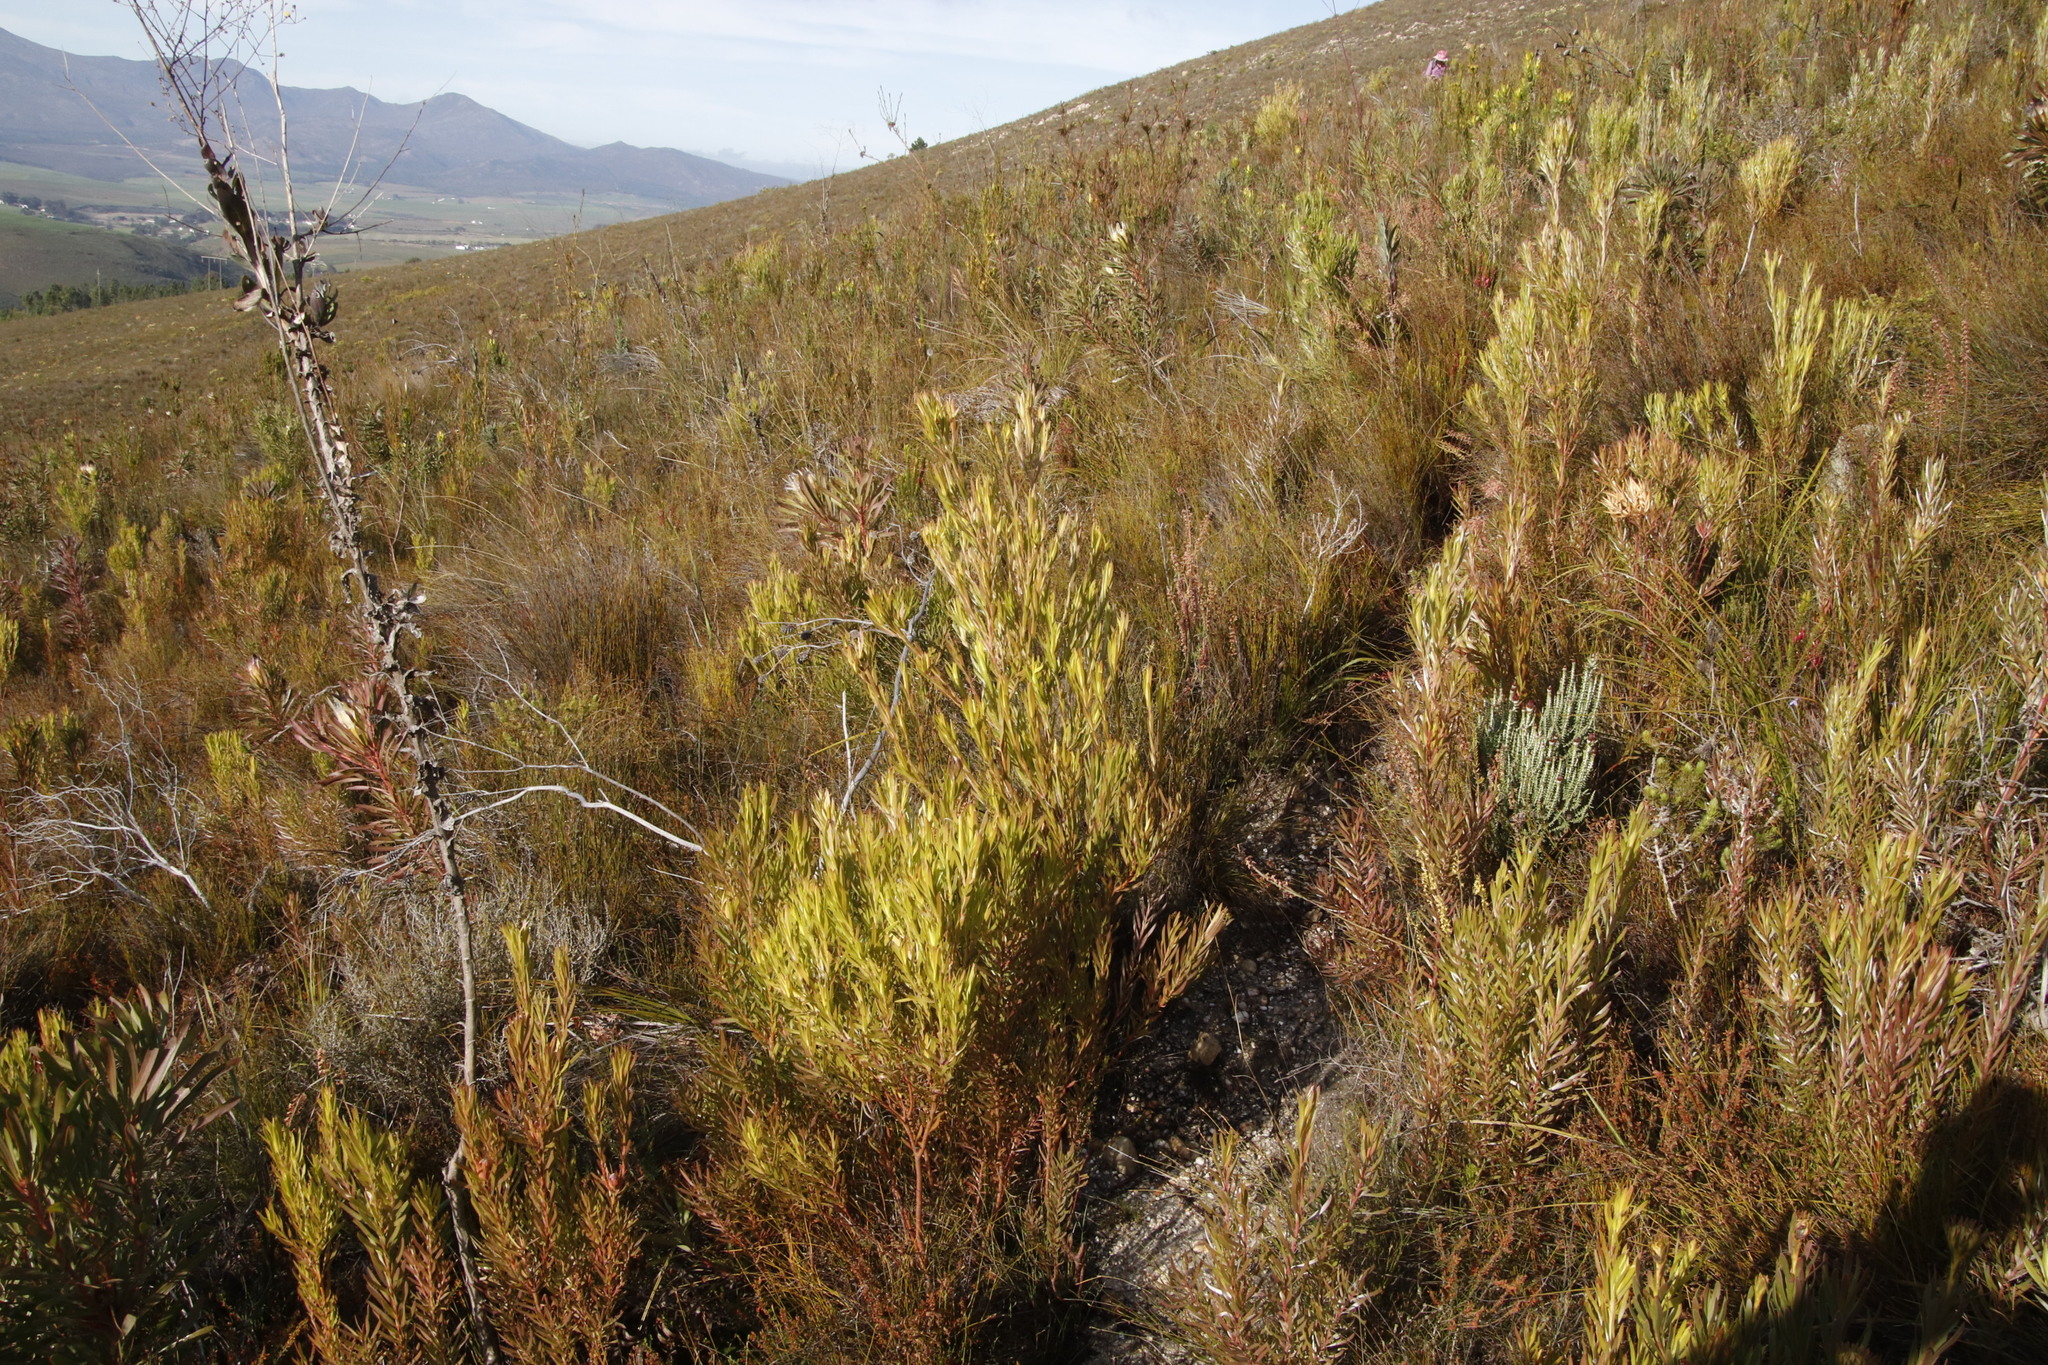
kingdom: Plantae
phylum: Tracheophyta
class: Magnoliopsida
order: Proteales
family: Proteaceae
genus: Leucadendron
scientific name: Leucadendron xanthoconus
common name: Sickle-leaf conebush
